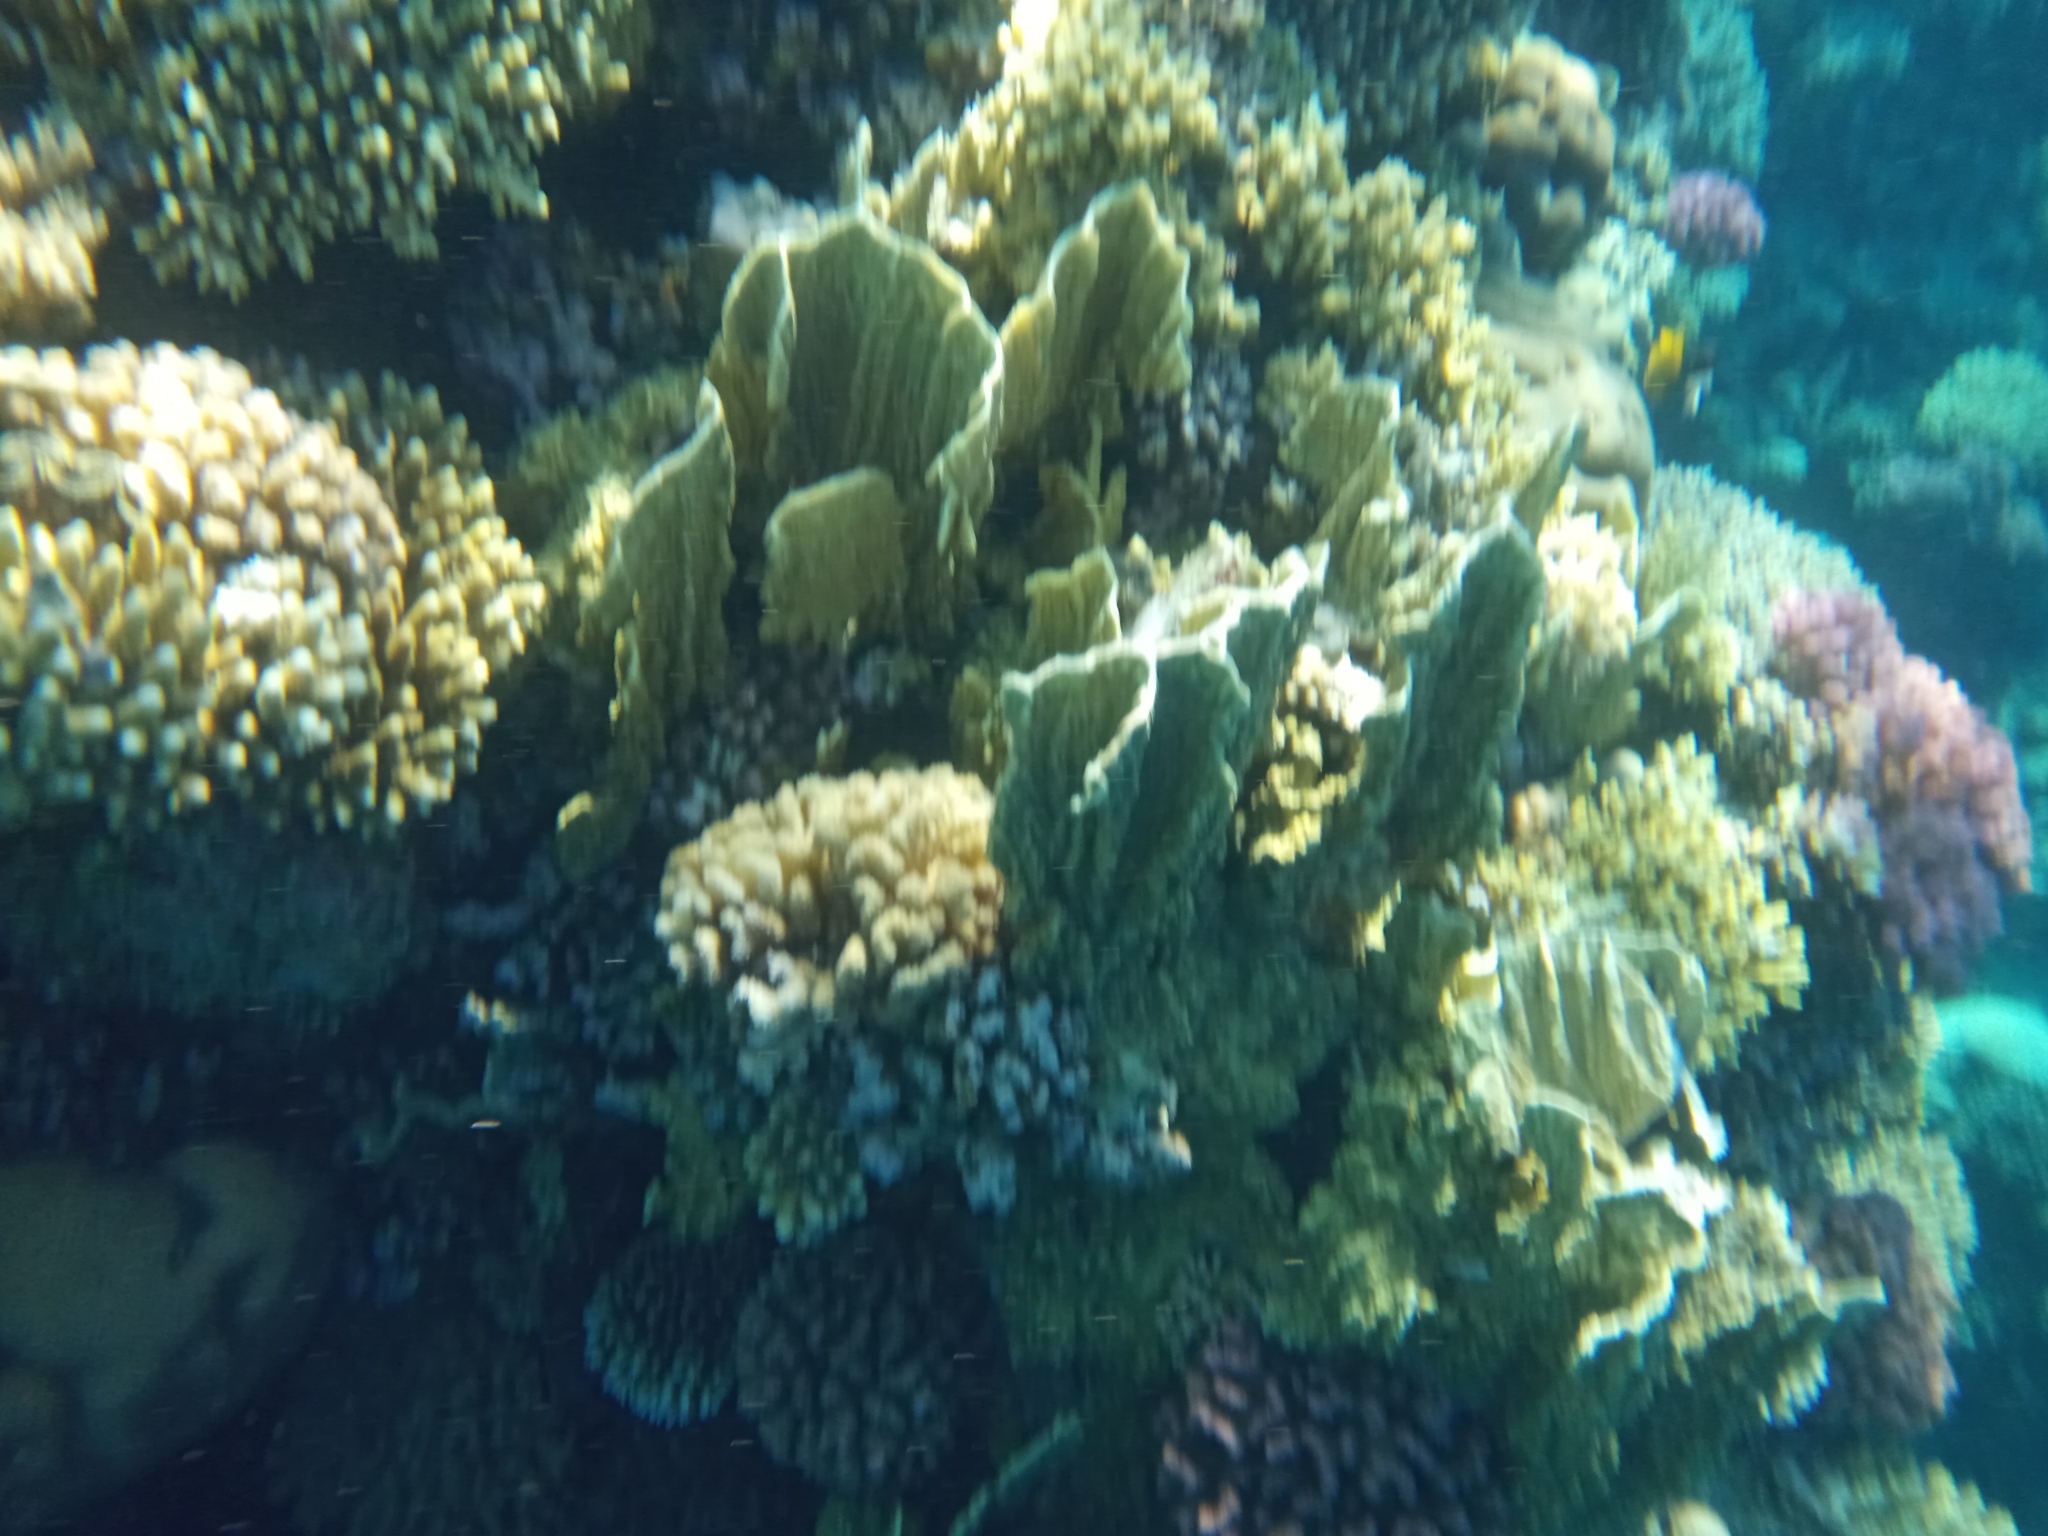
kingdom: Animalia
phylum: Cnidaria
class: Hydrozoa
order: Anthoathecata
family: Milleporidae
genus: Millepora
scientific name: Millepora platyphylla
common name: Sheet fire coral
